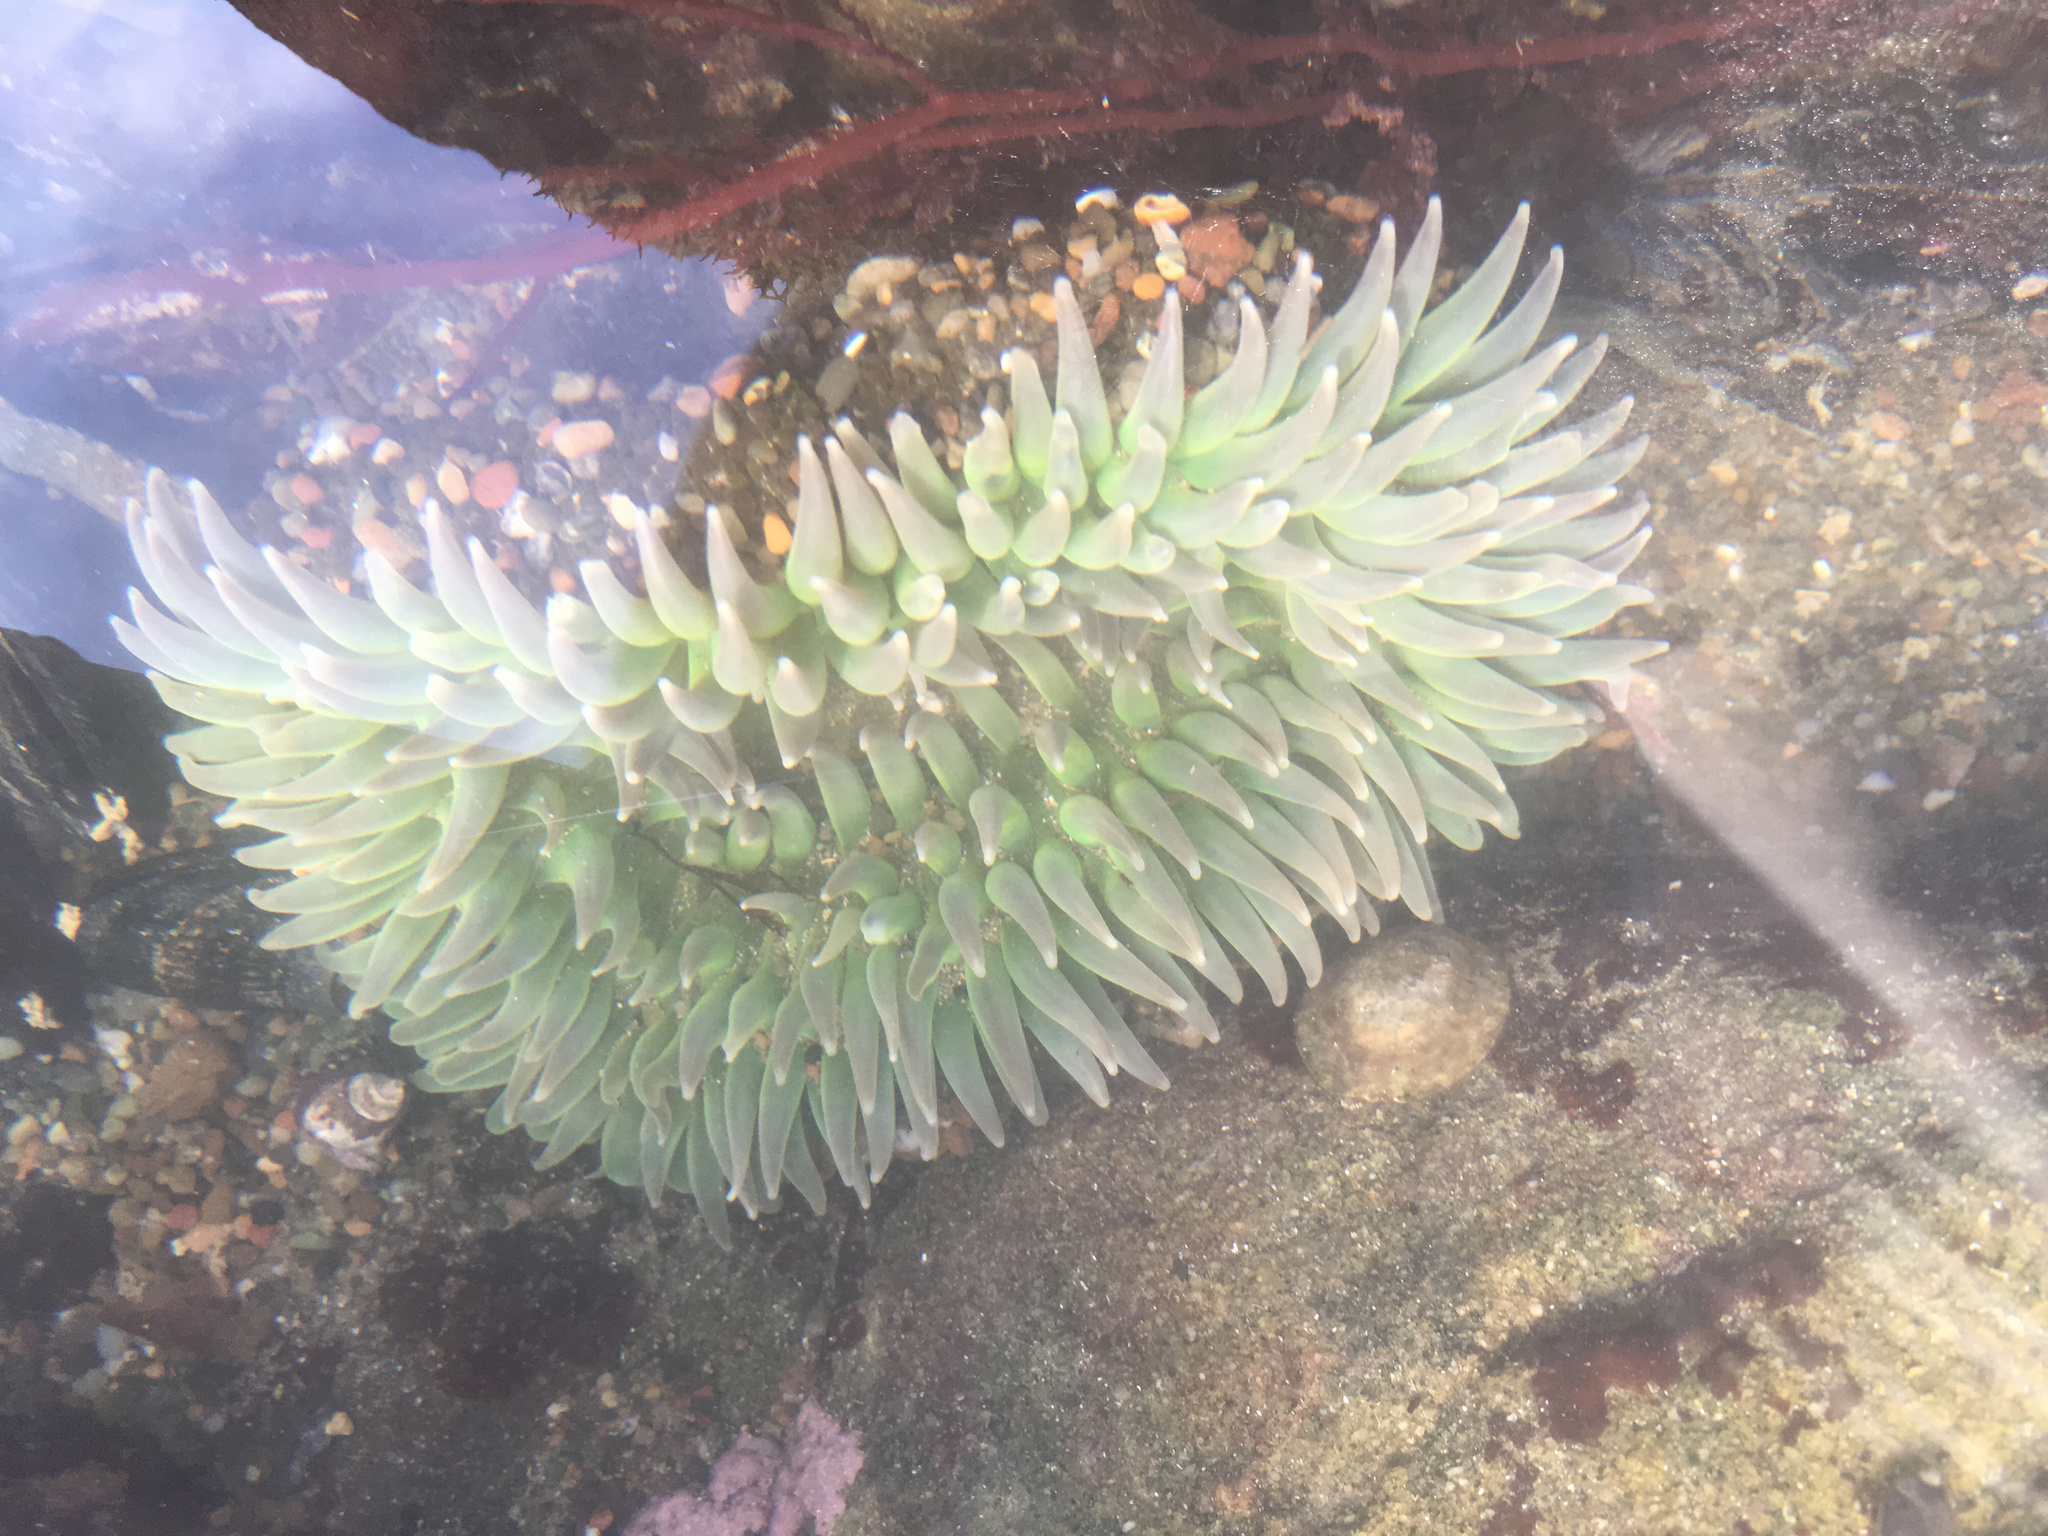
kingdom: Animalia
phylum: Cnidaria
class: Anthozoa
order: Actiniaria
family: Actiniidae
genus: Anthopleura
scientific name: Anthopleura xanthogrammica
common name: Giant green anemone
